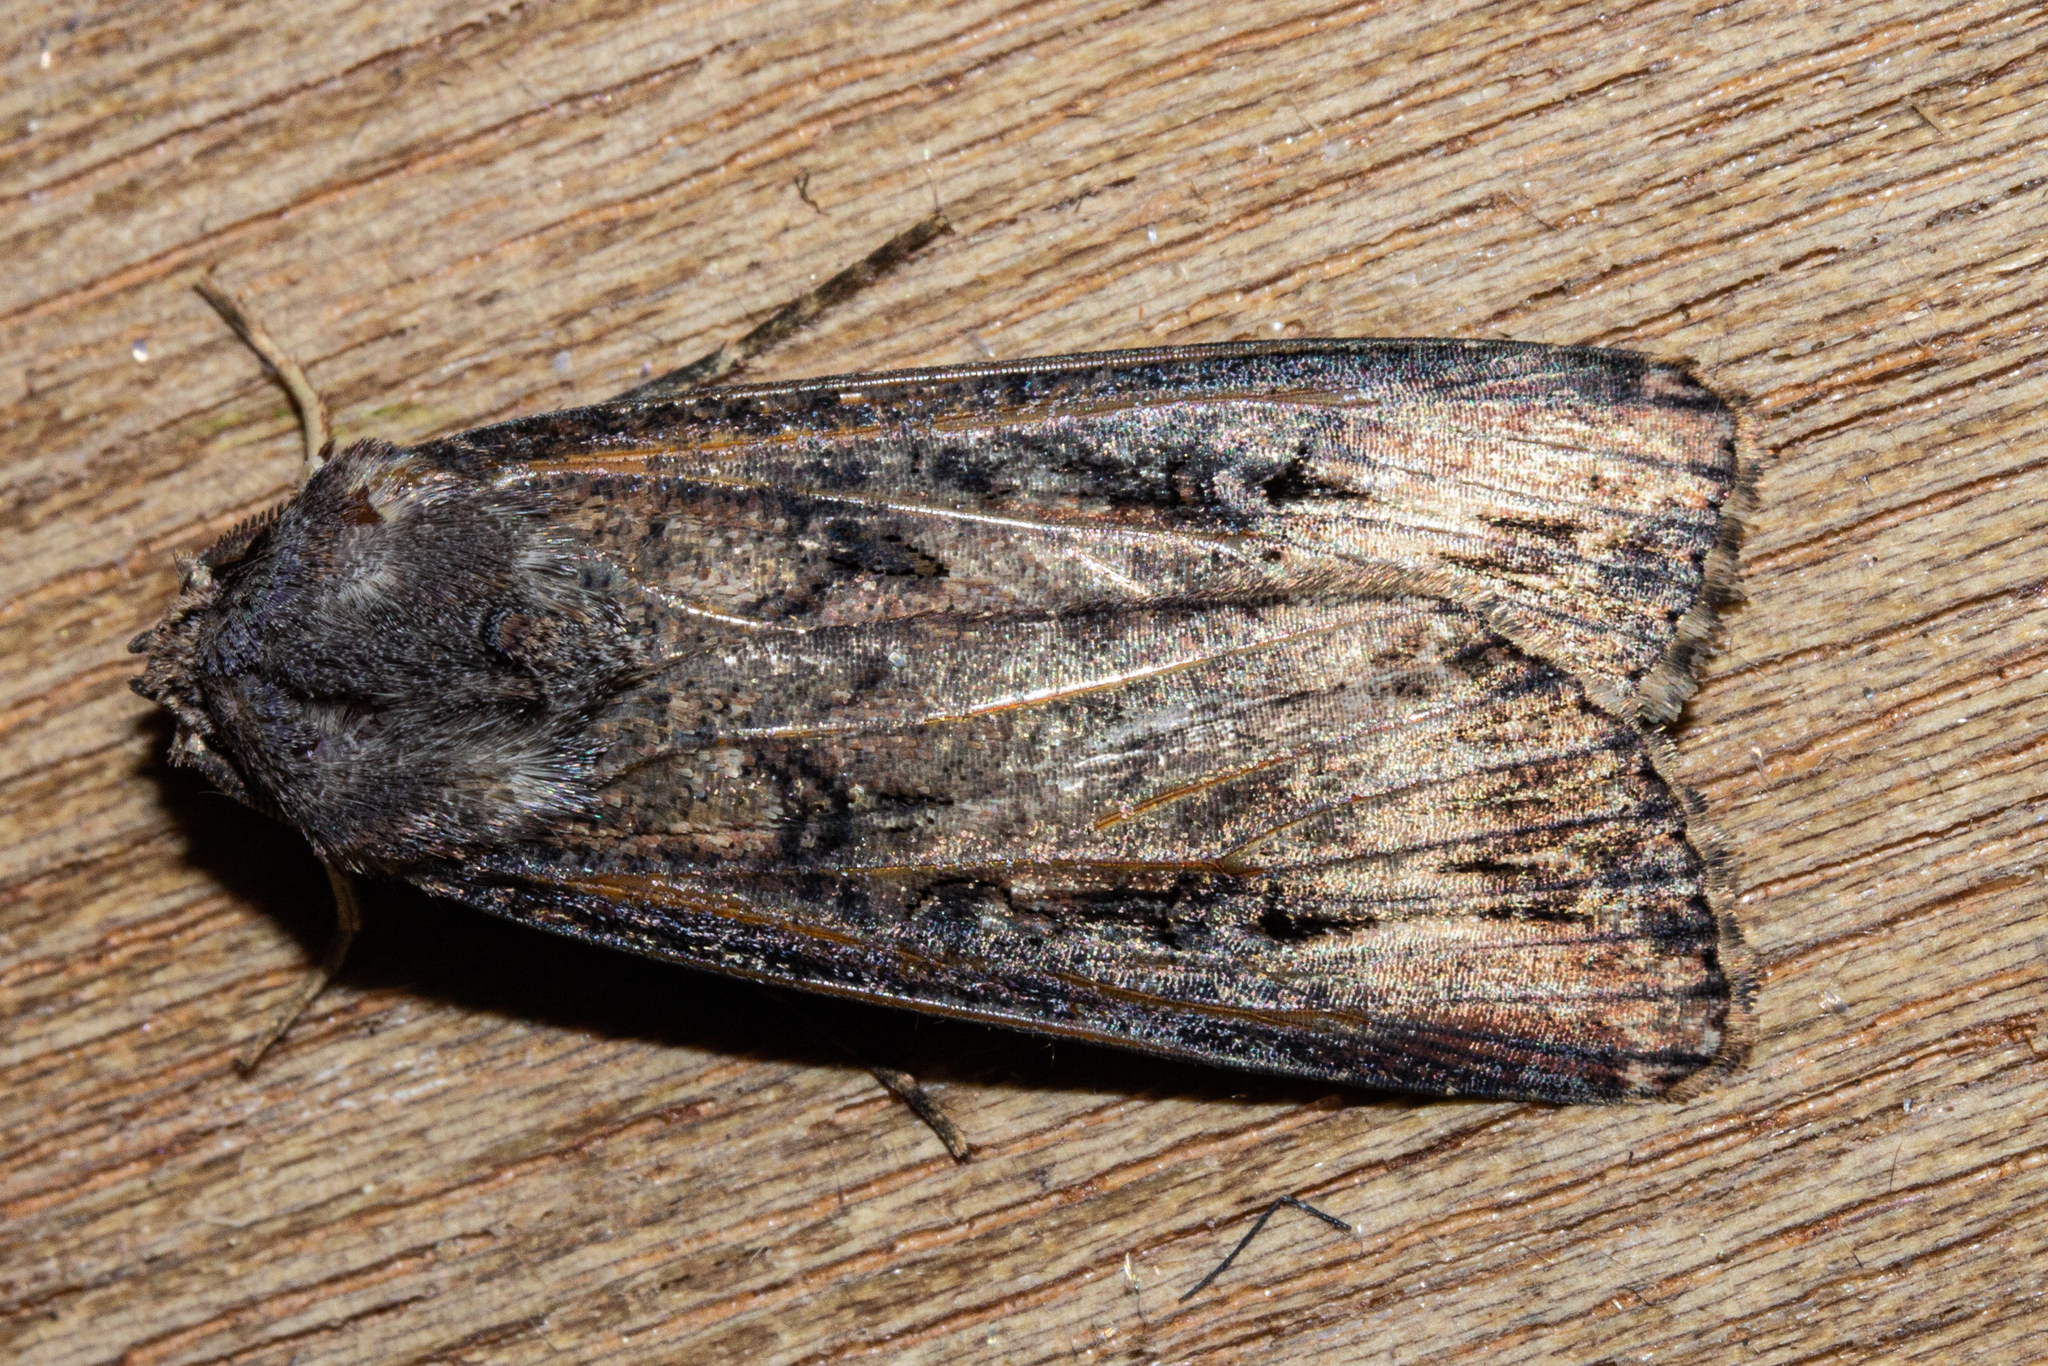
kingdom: Animalia
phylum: Arthropoda
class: Insecta
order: Lepidoptera
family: Noctuidae
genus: Agrotis
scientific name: Agrotis ipsilon
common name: Dark sword-grass
